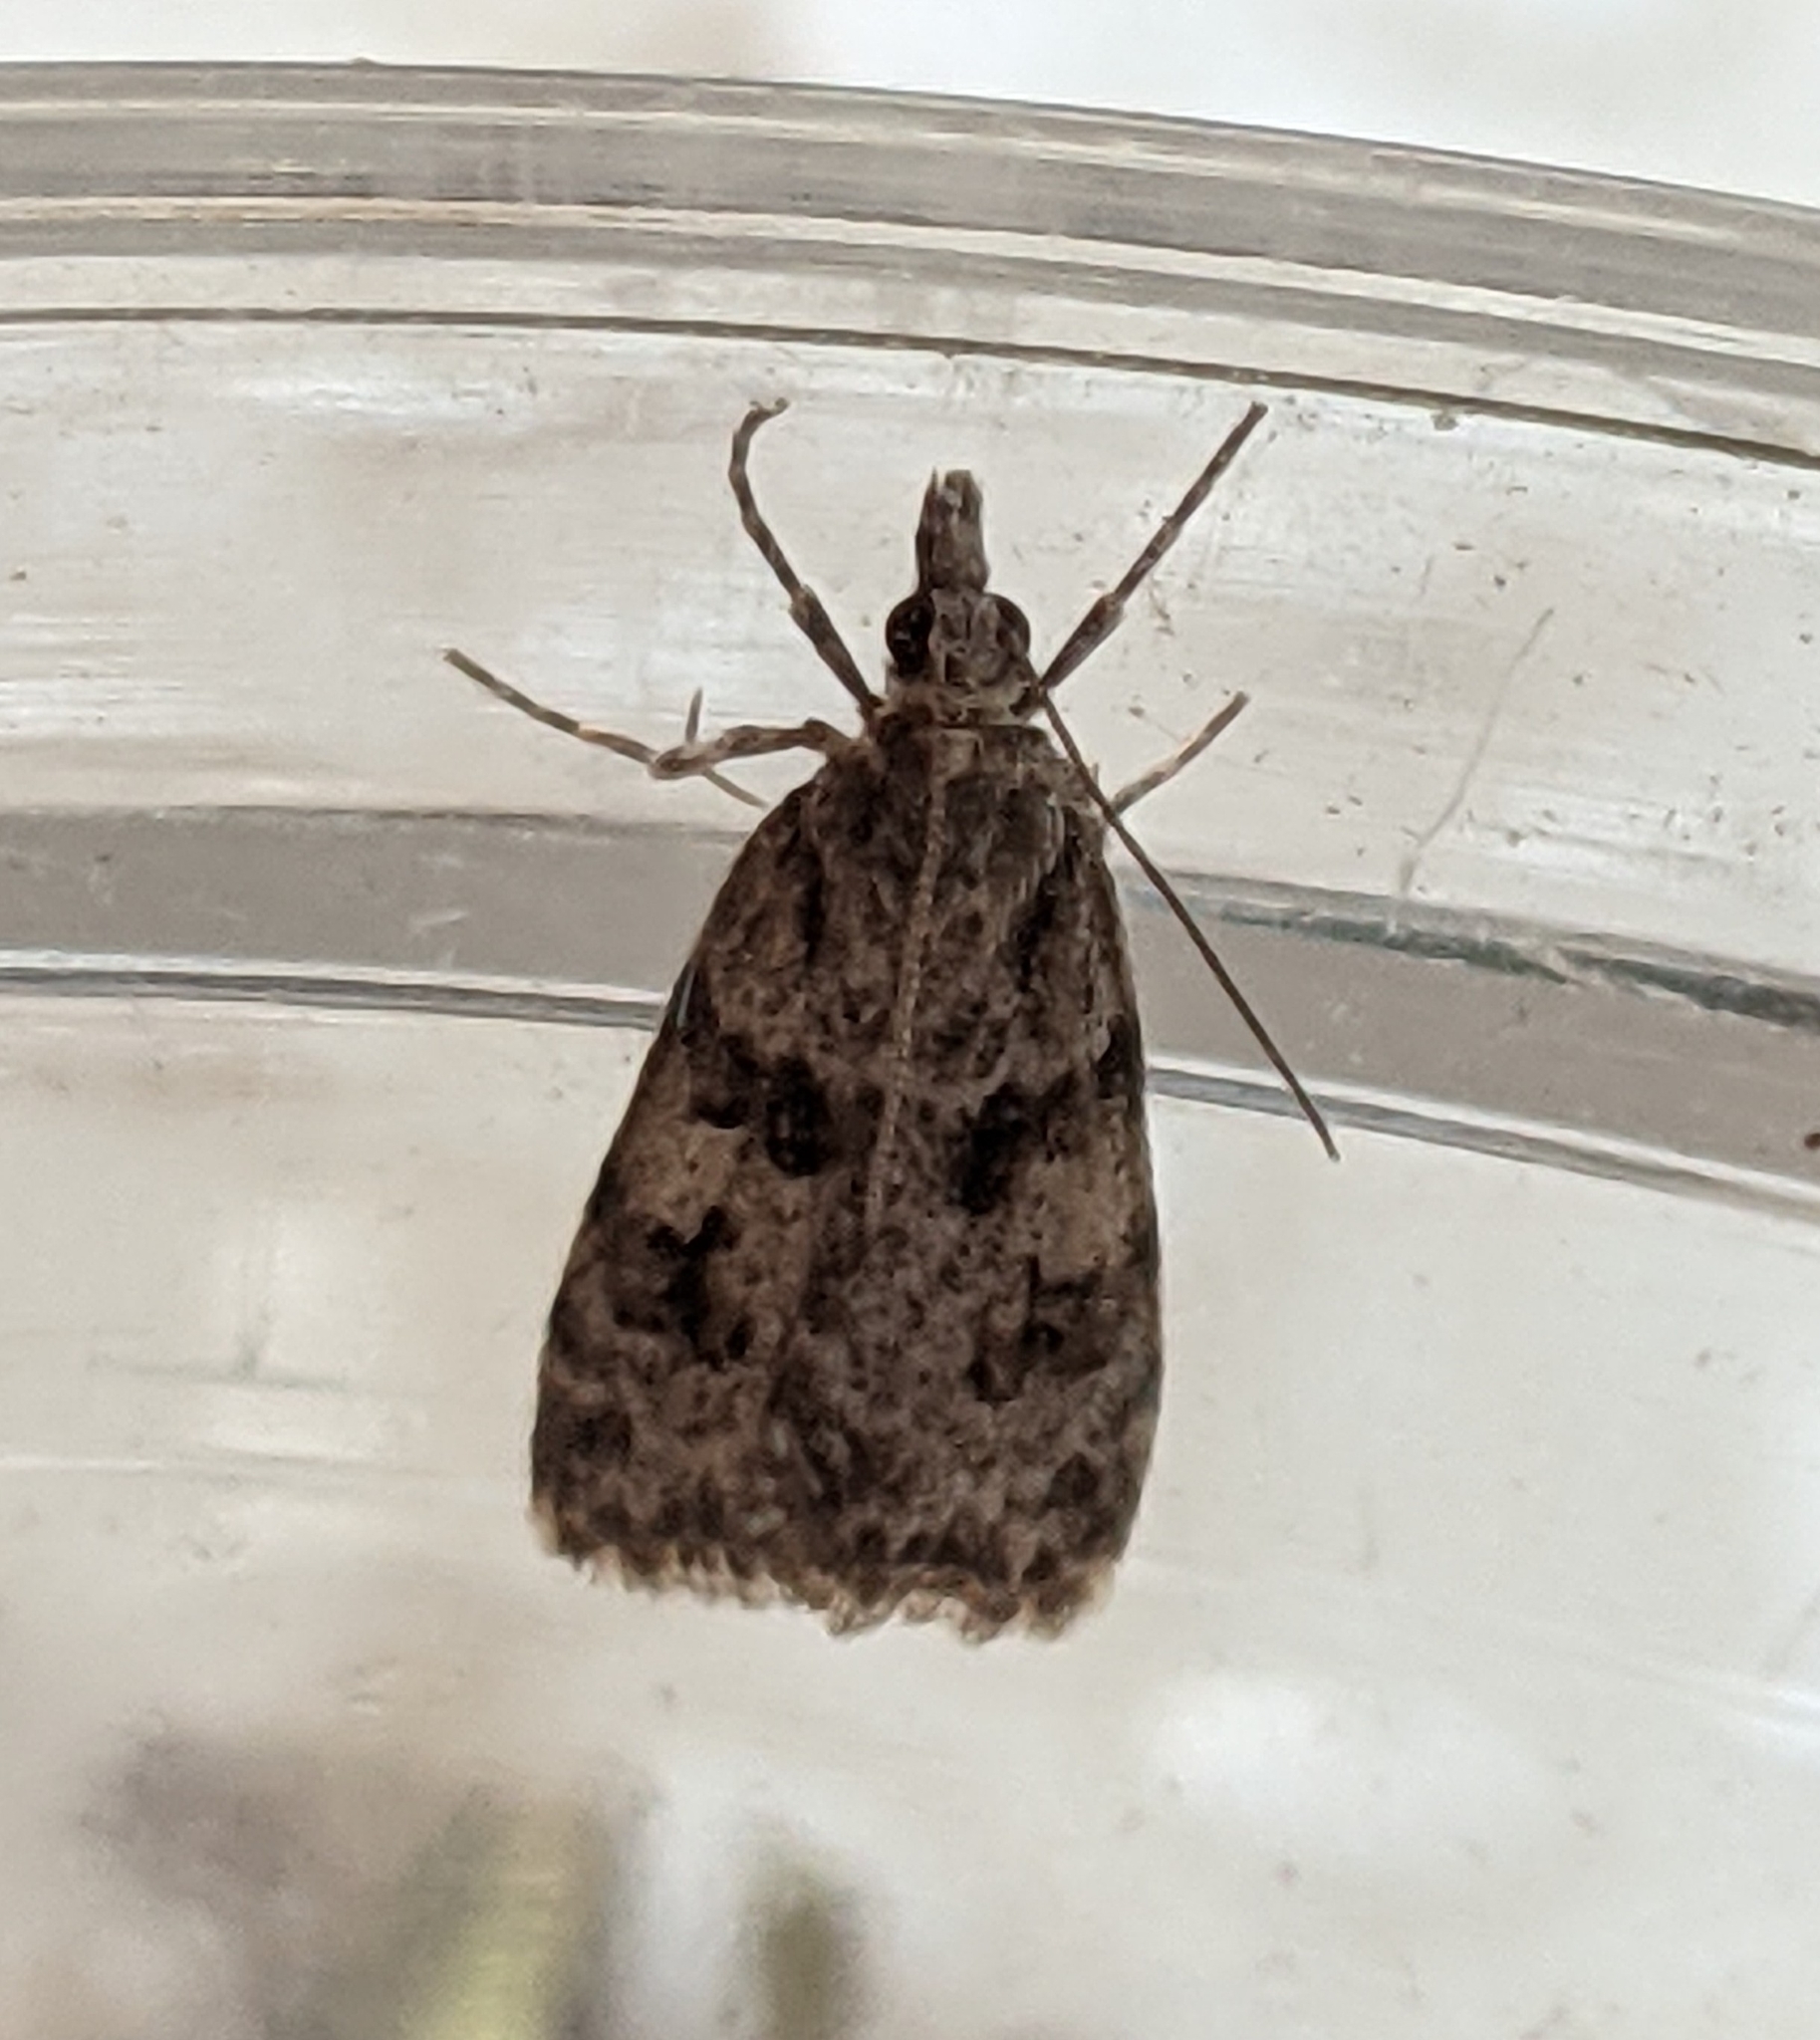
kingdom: Animalia
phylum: Arthropoda
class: Insecta
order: Lepidoptera
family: Crambidae
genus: Scoparia
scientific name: Scoparia biplagialis
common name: Double-striped scoparia moth
